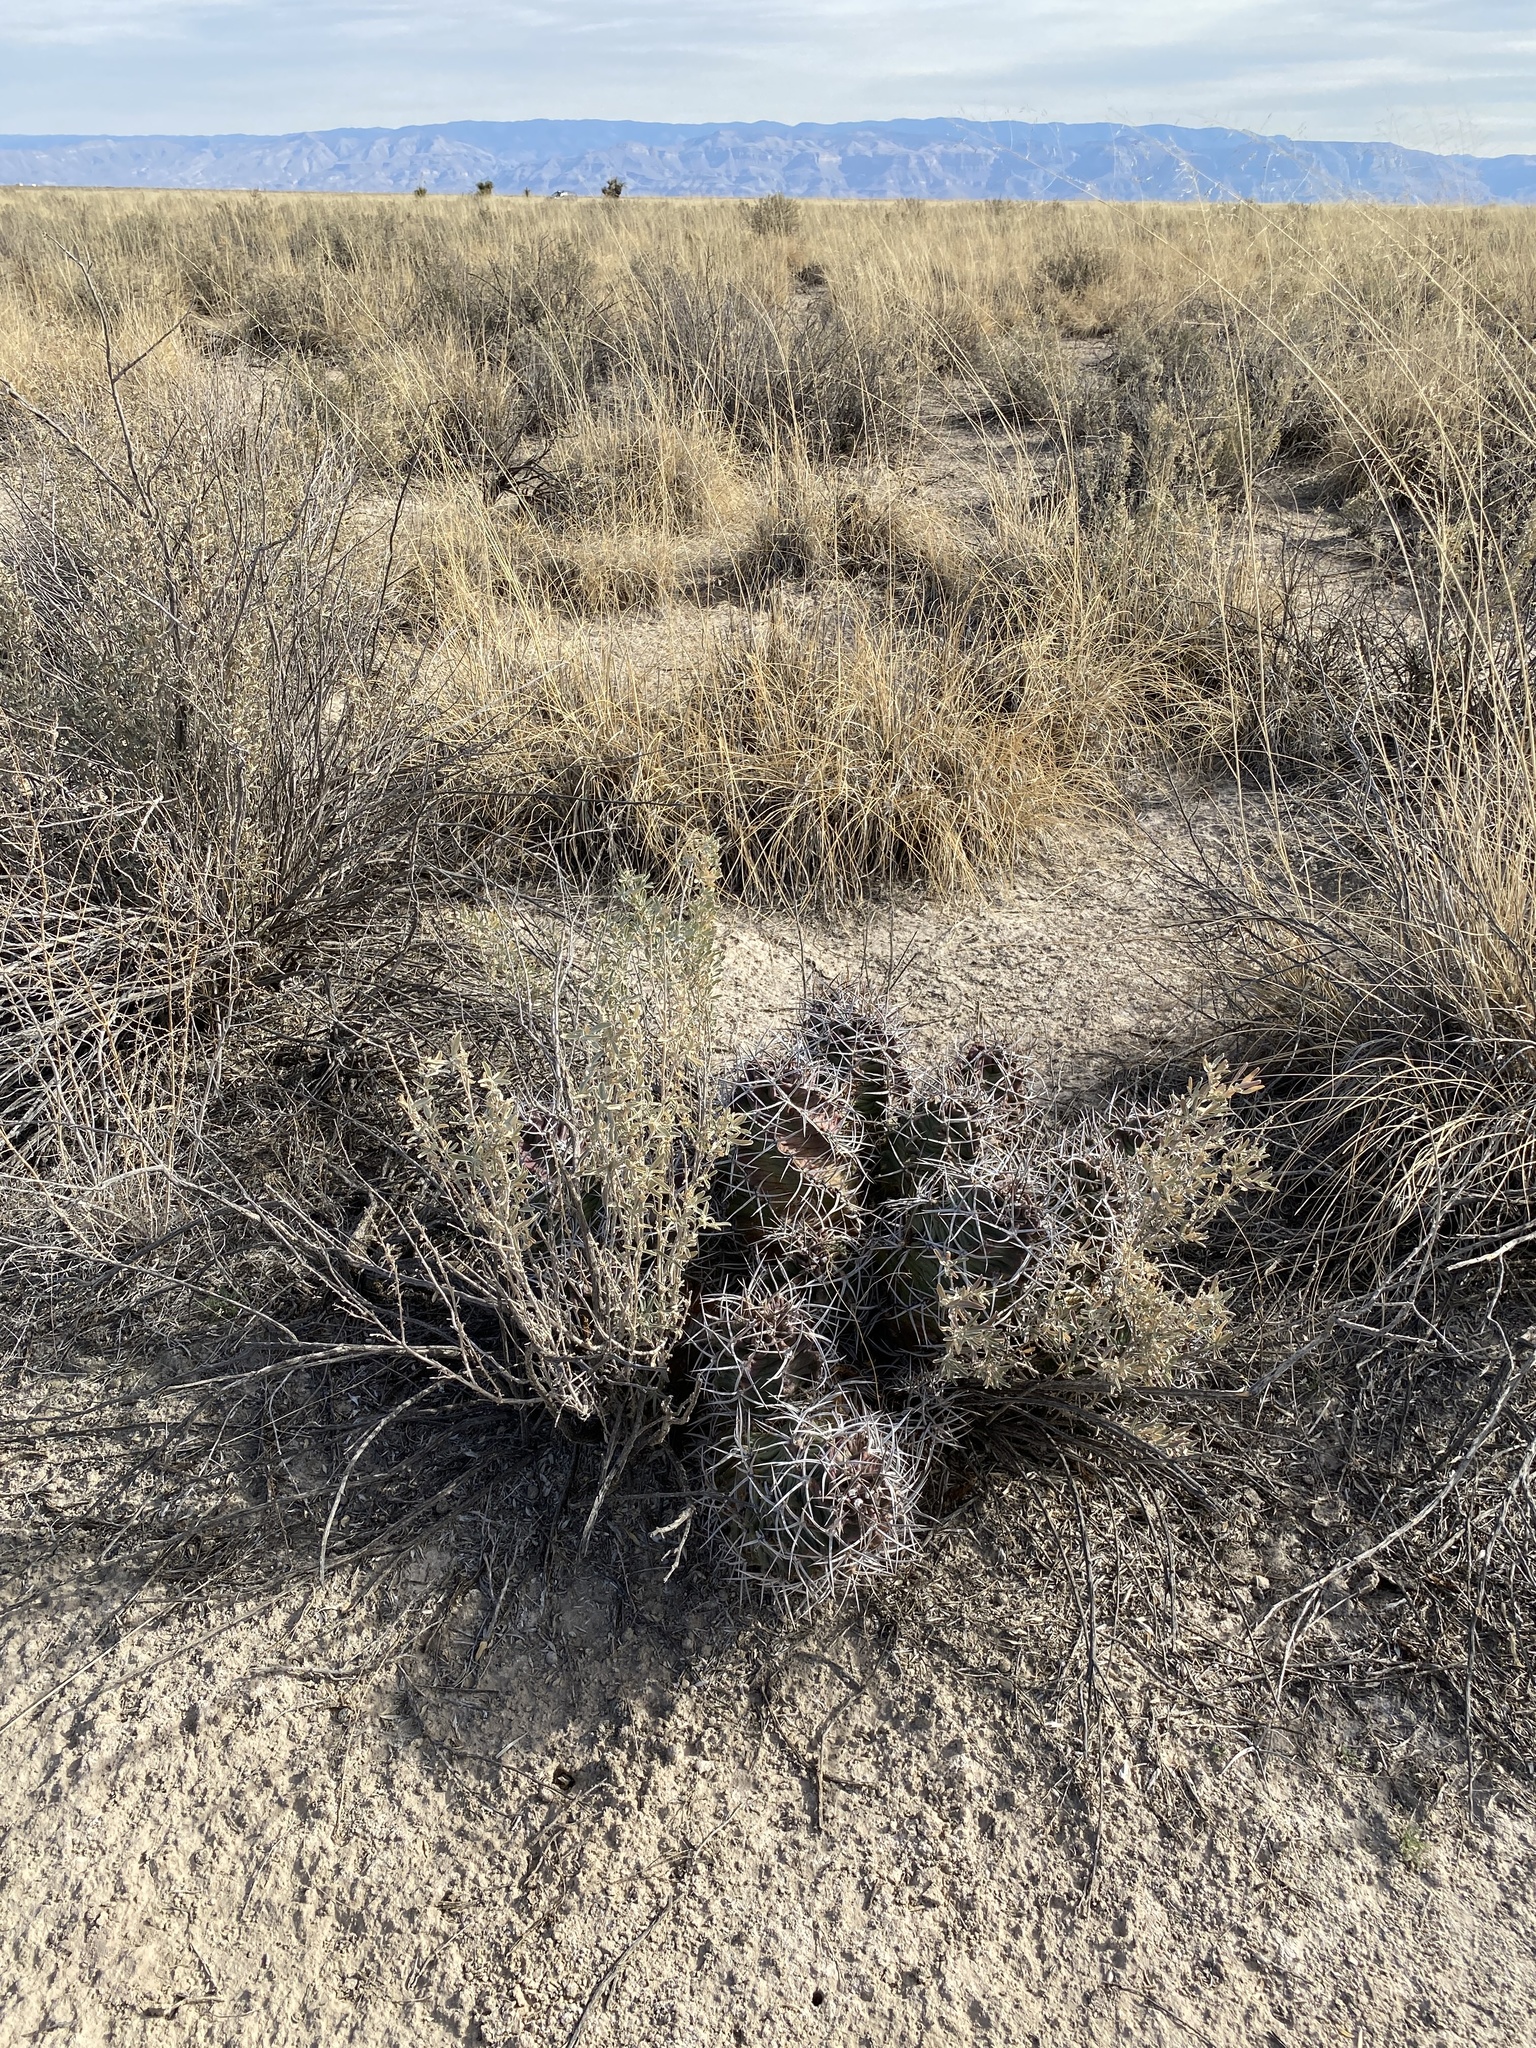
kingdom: Plantae
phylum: Tracheophyta
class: Magnoliopsida
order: Caryophyllales
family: Cactaceae
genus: Echinocereus
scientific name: Echinocereus triglochidiatus
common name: Claretcup hedgehog
